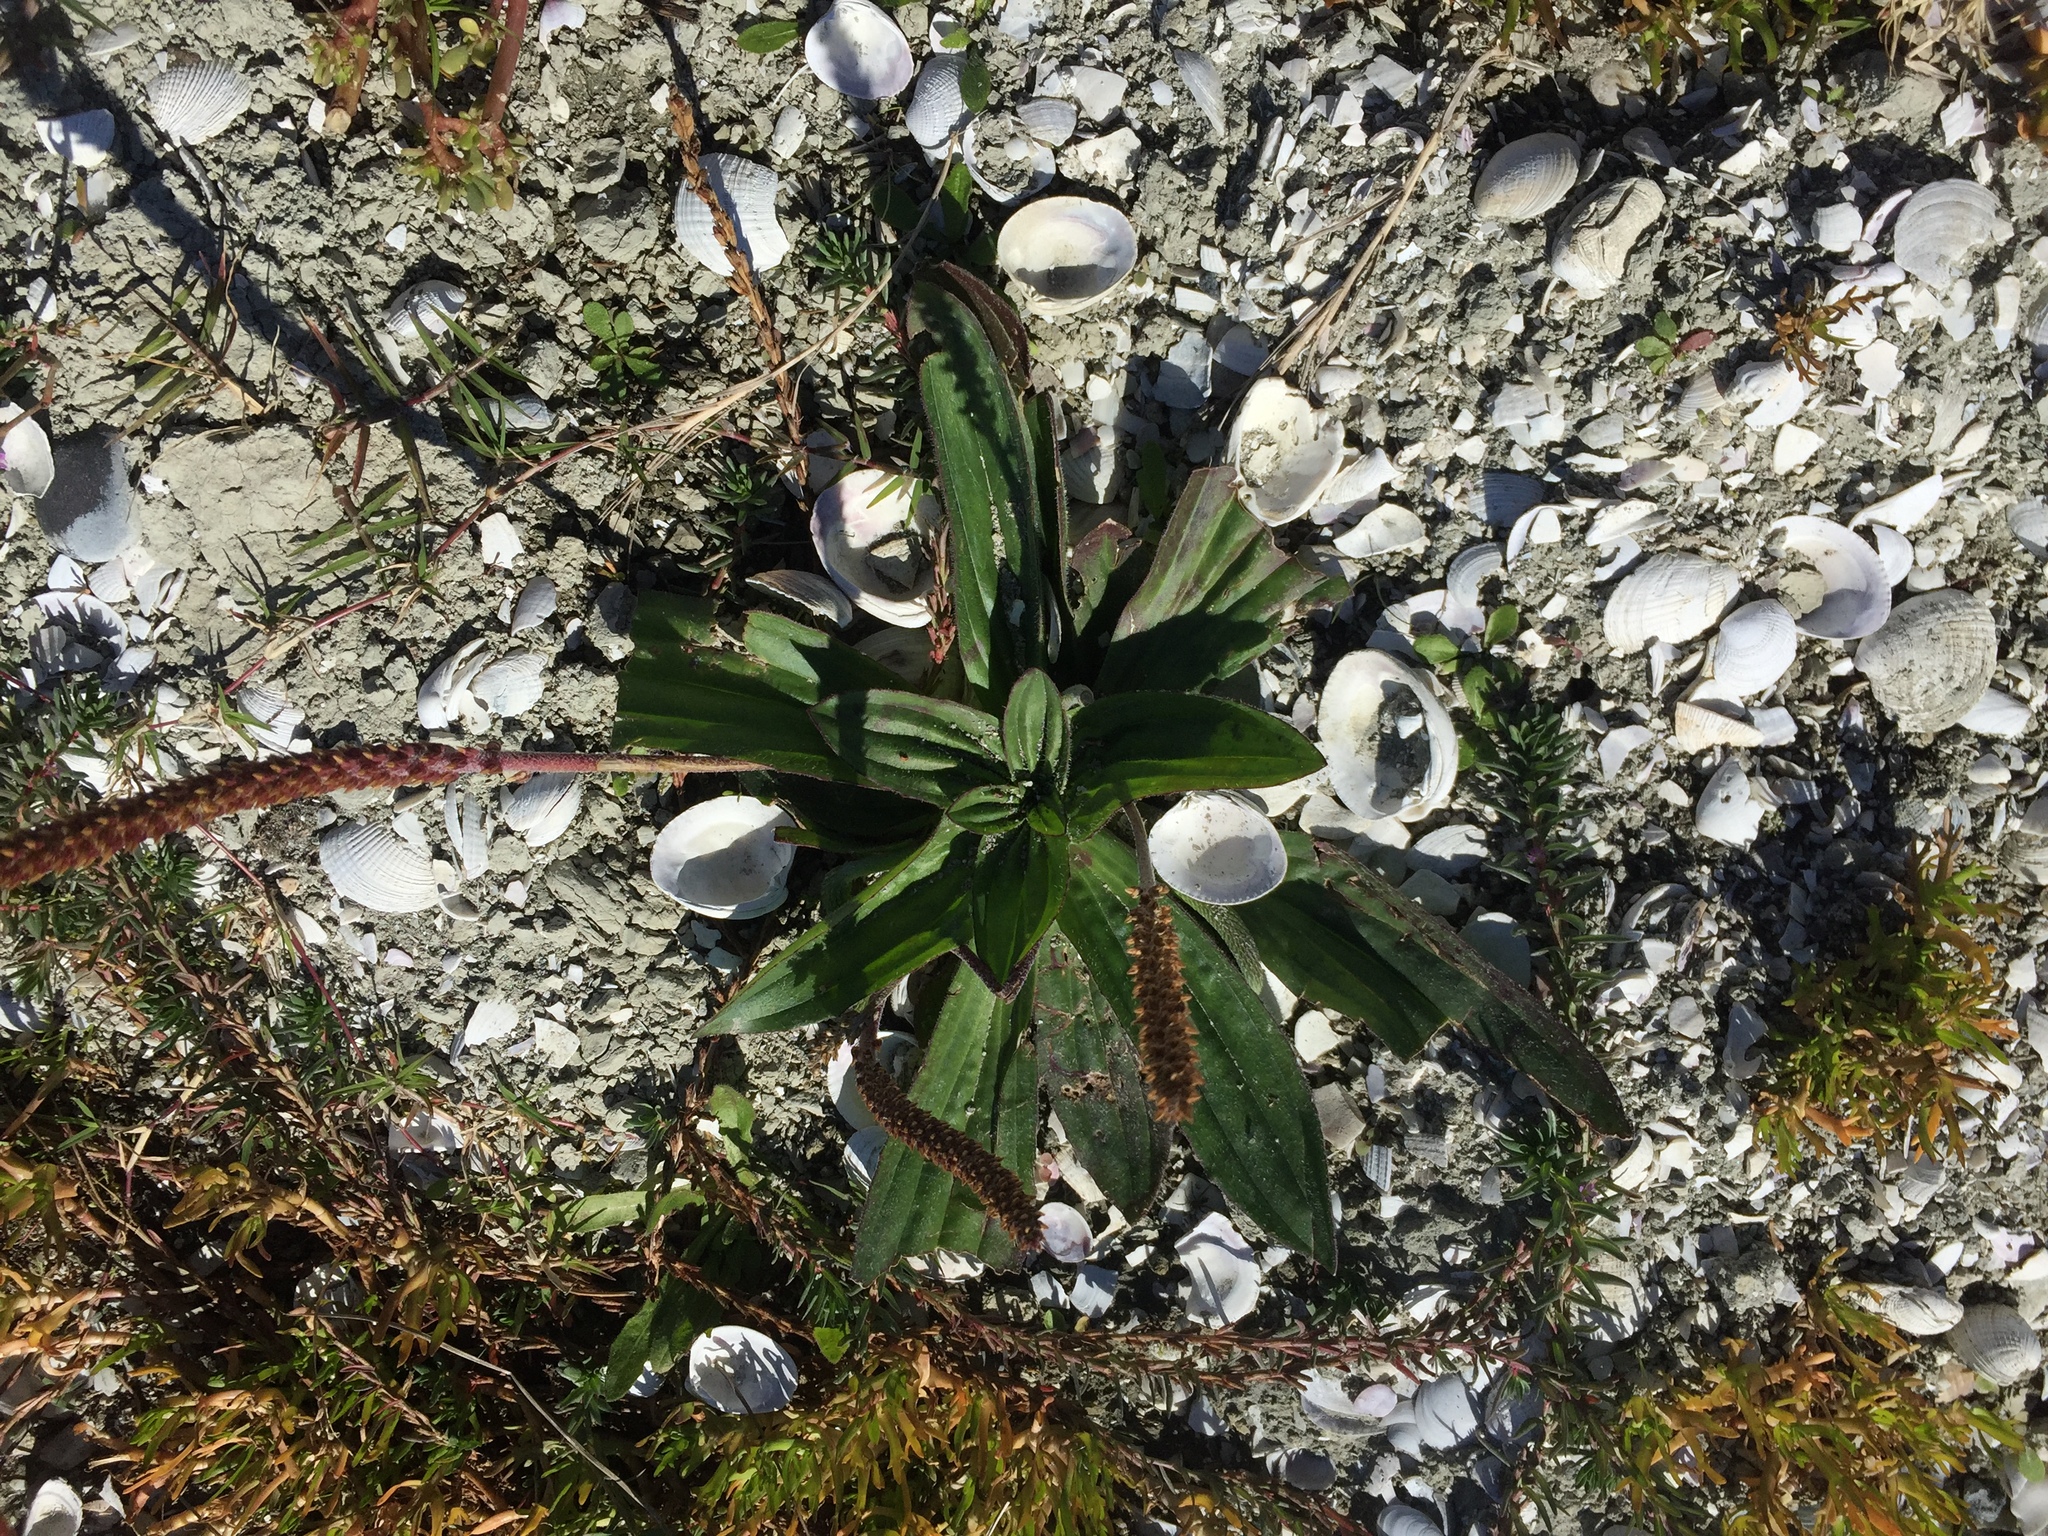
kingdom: Plantae
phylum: Tracheophyta
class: Magnoliopsida
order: Lamiales
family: Plantaginaceae
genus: Plantago
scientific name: Plantago australis
